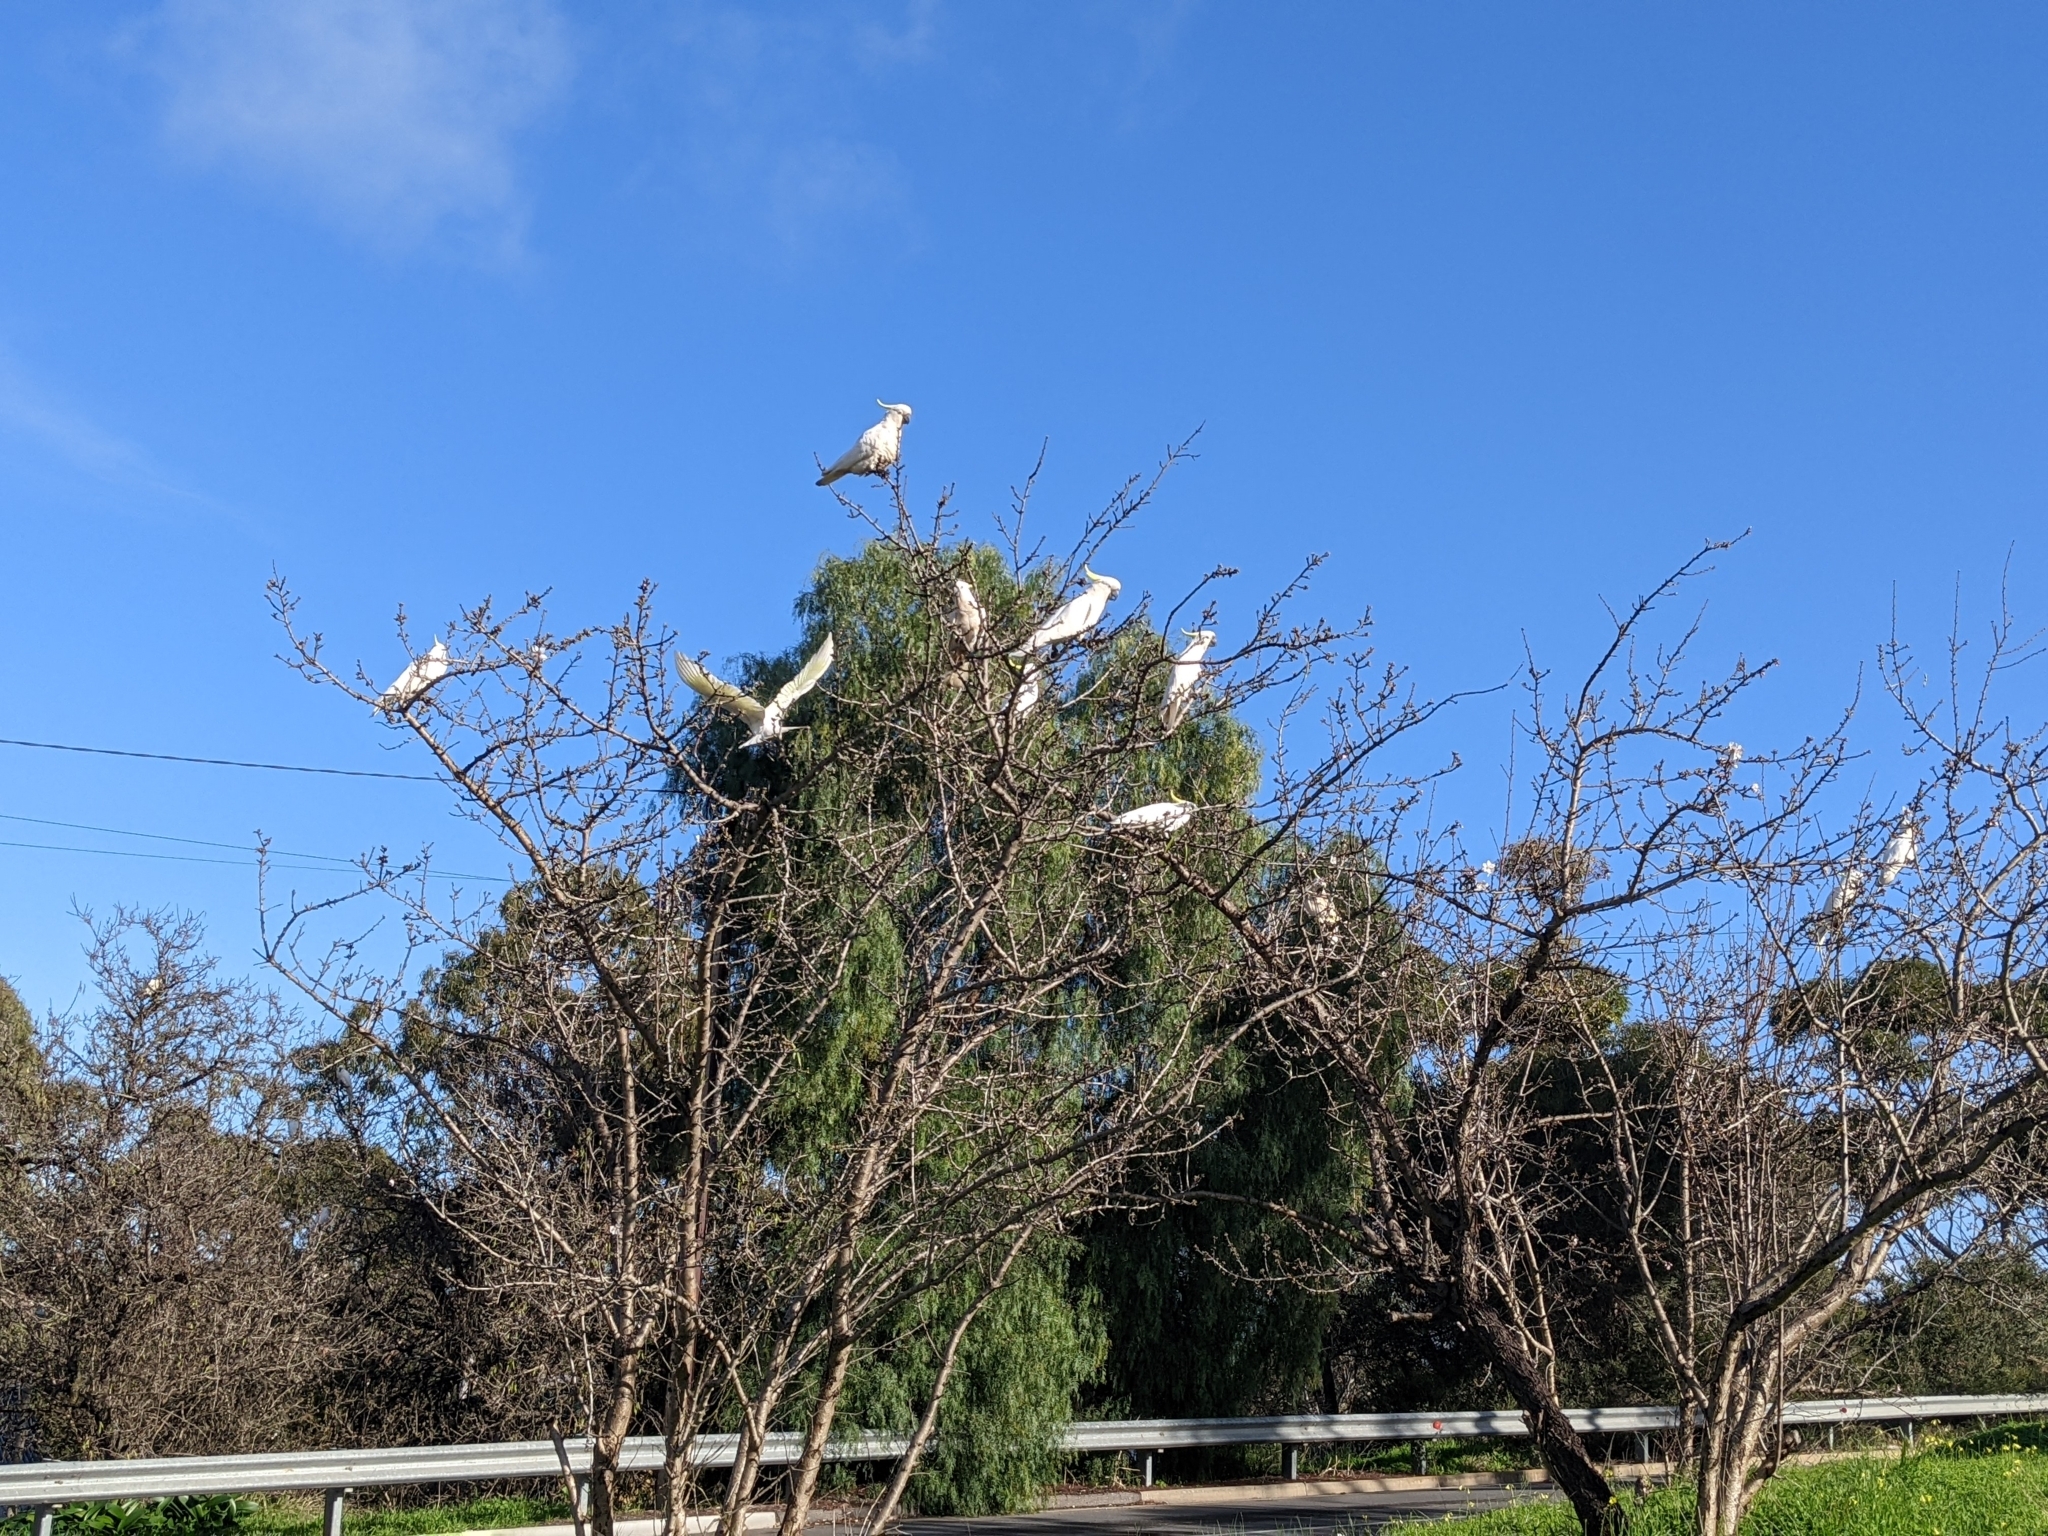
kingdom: Animalia
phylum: Chordata
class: Aves
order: Psittaciformes
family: Psittacidae
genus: Cacatua
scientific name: Cacatua galerita
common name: Sulphur-crested cockatoo
